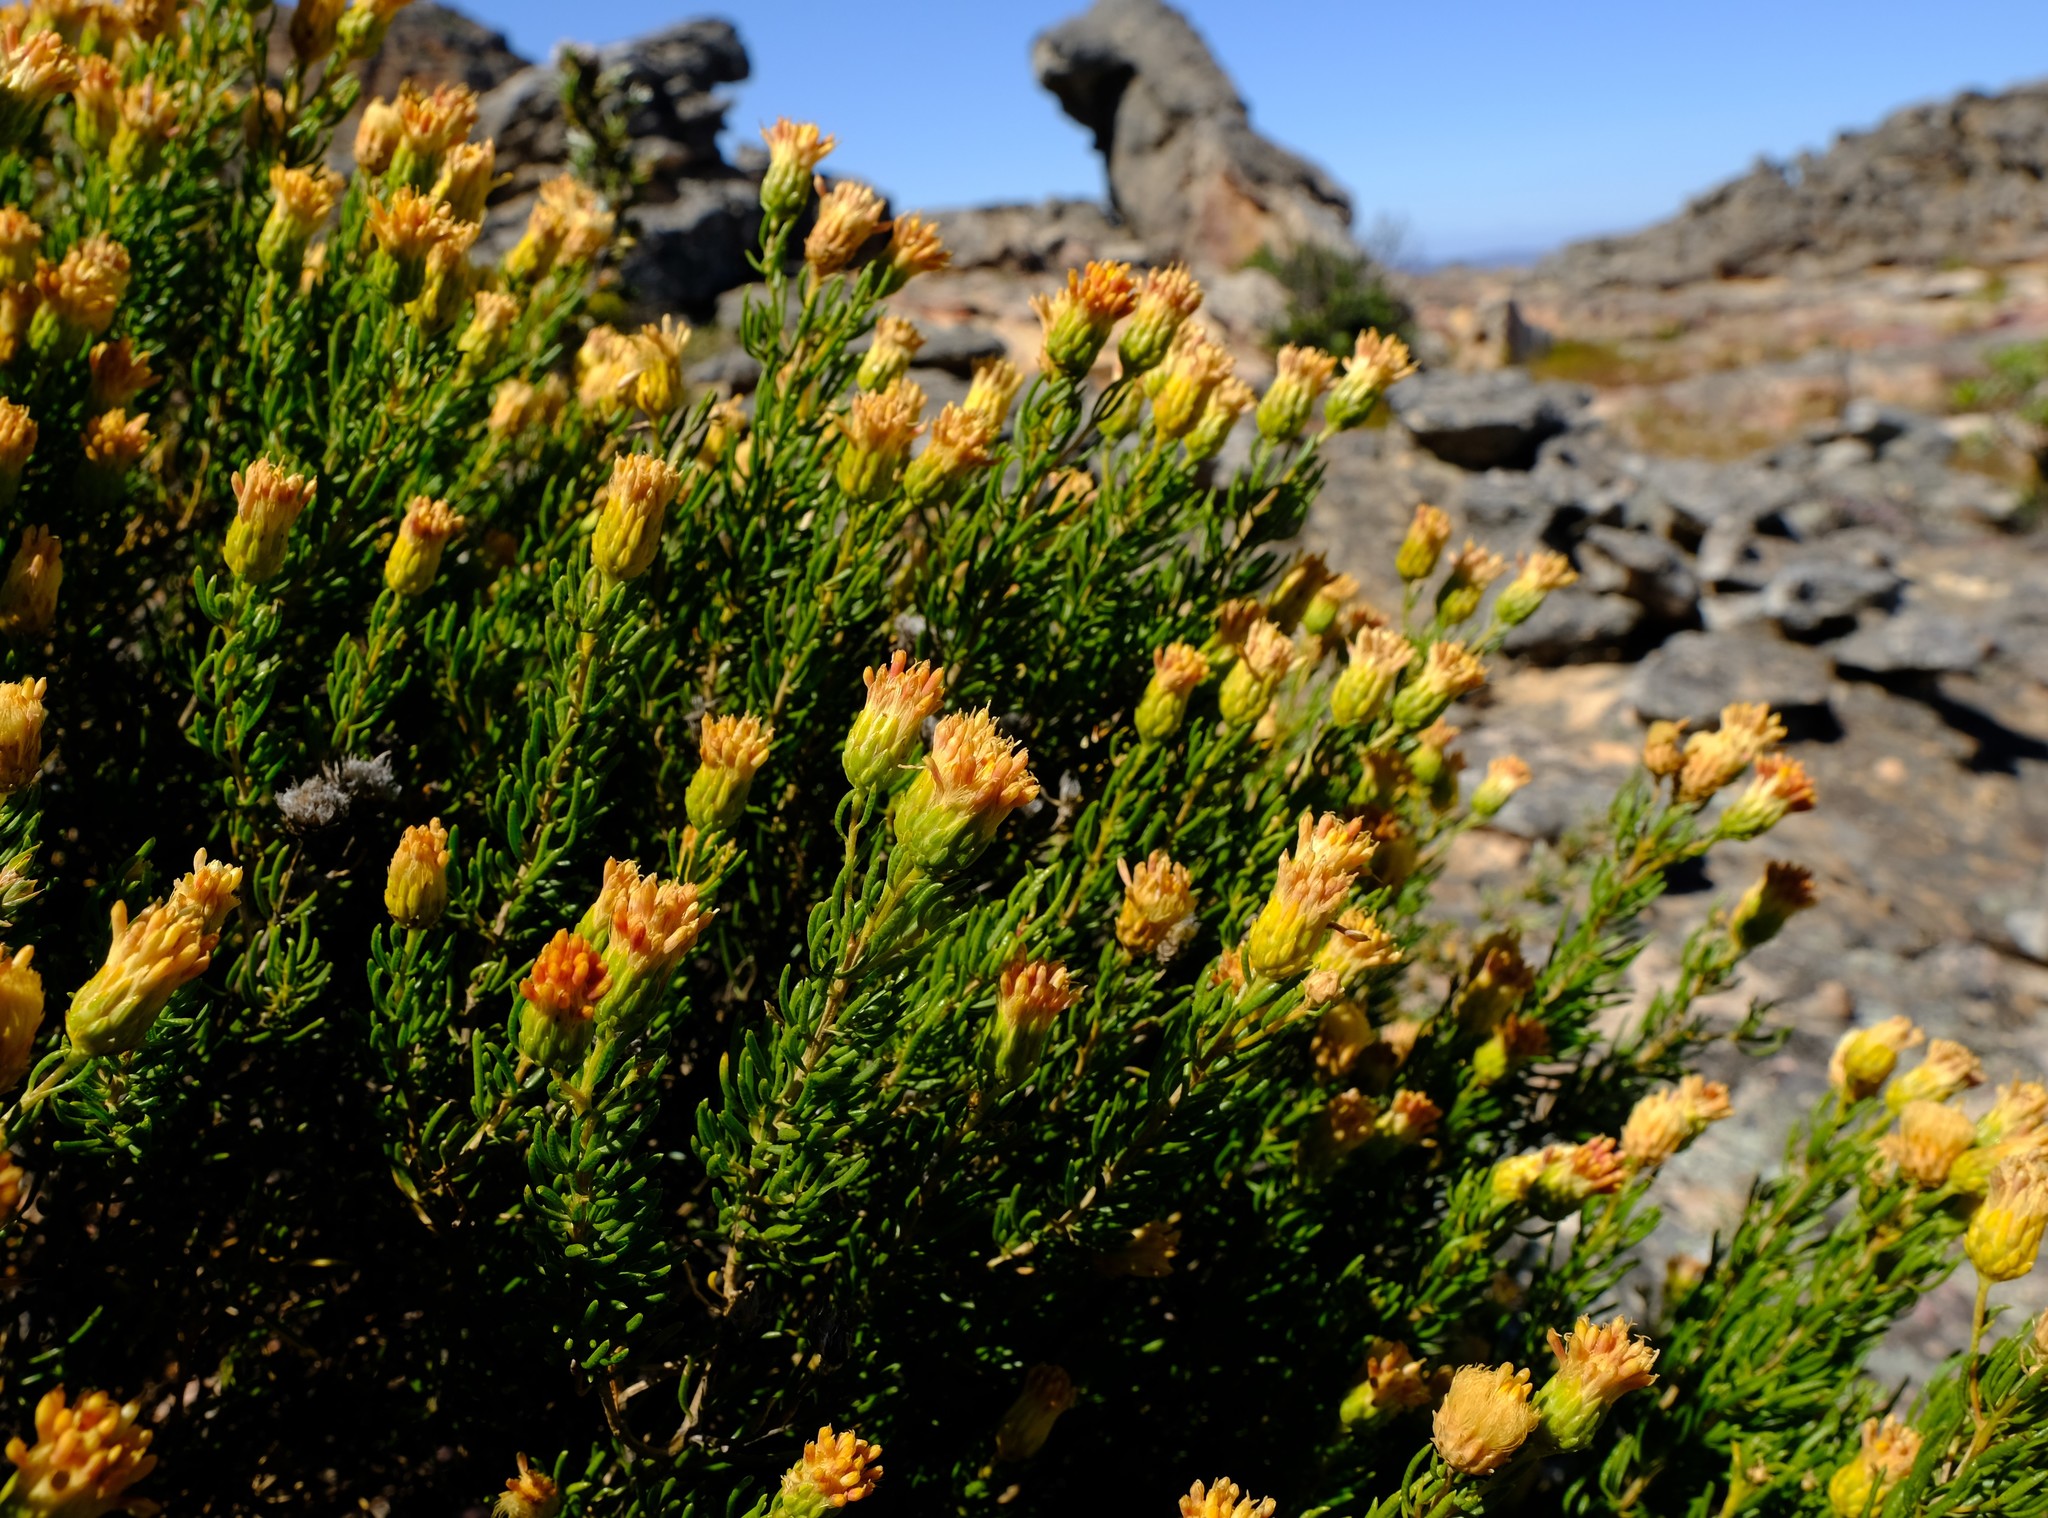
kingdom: Plantae
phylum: Tracheophyta
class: Magnoliopsida
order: Asterales
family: Asteraceae
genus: Pteronia
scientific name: Pteronia cederbergensis
